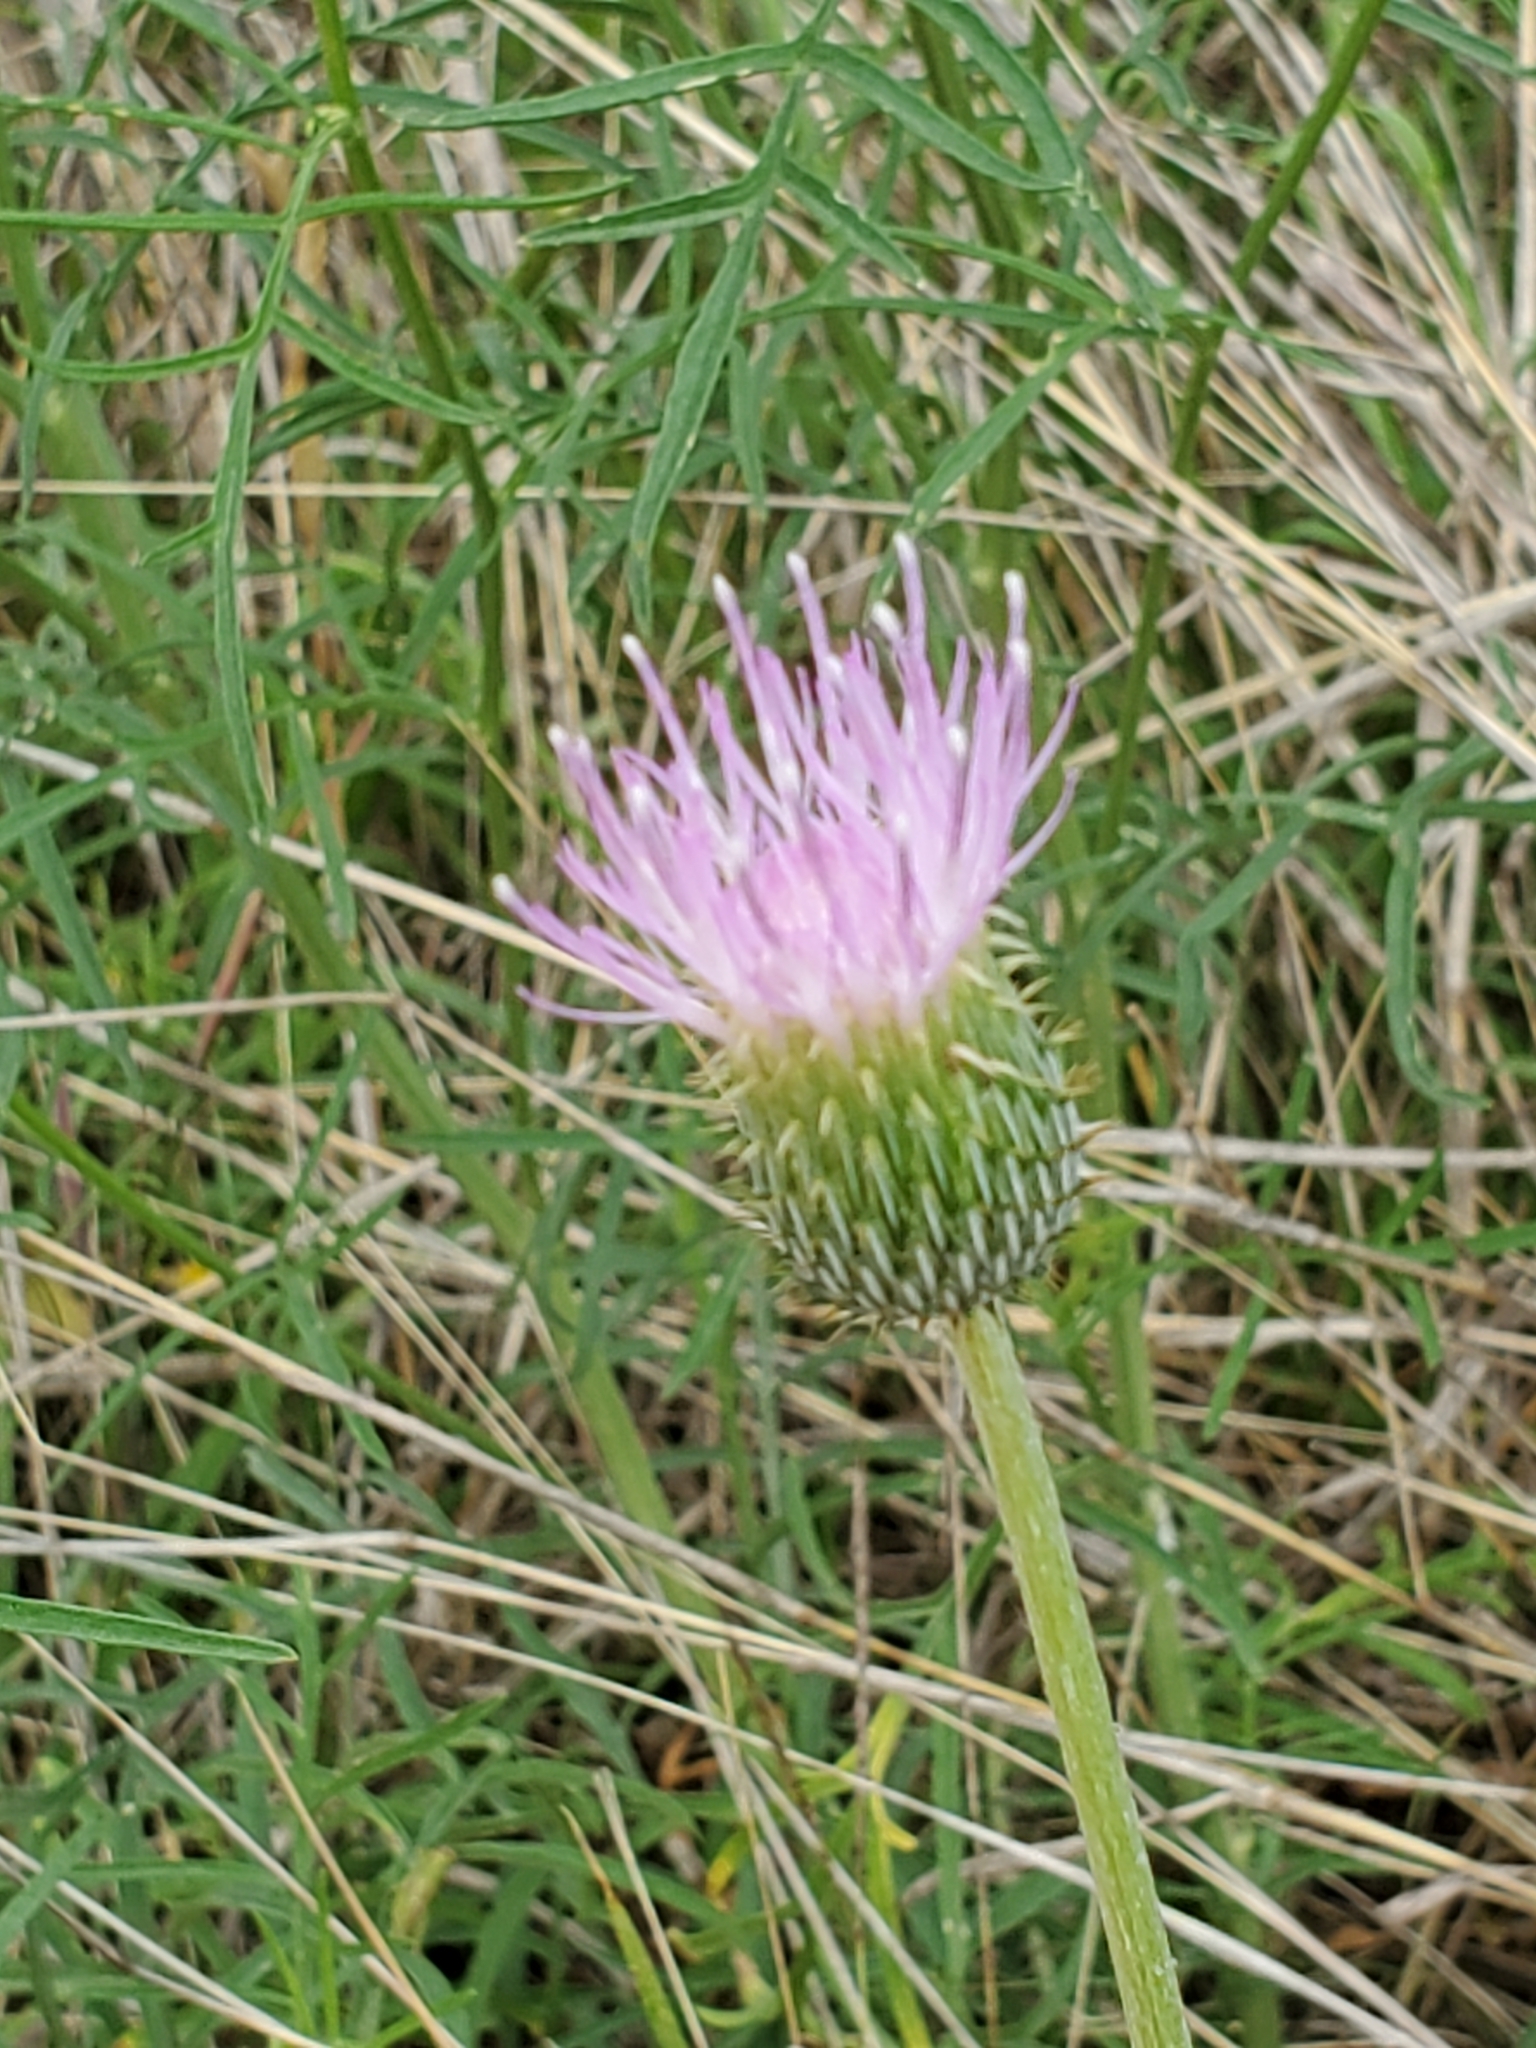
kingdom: Plantae
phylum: Tracheophyta
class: Magnoliopsida
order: Asterales
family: Asteraceae
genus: Cirsium
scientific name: Cirsium texanum
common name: Texas purple thistle
